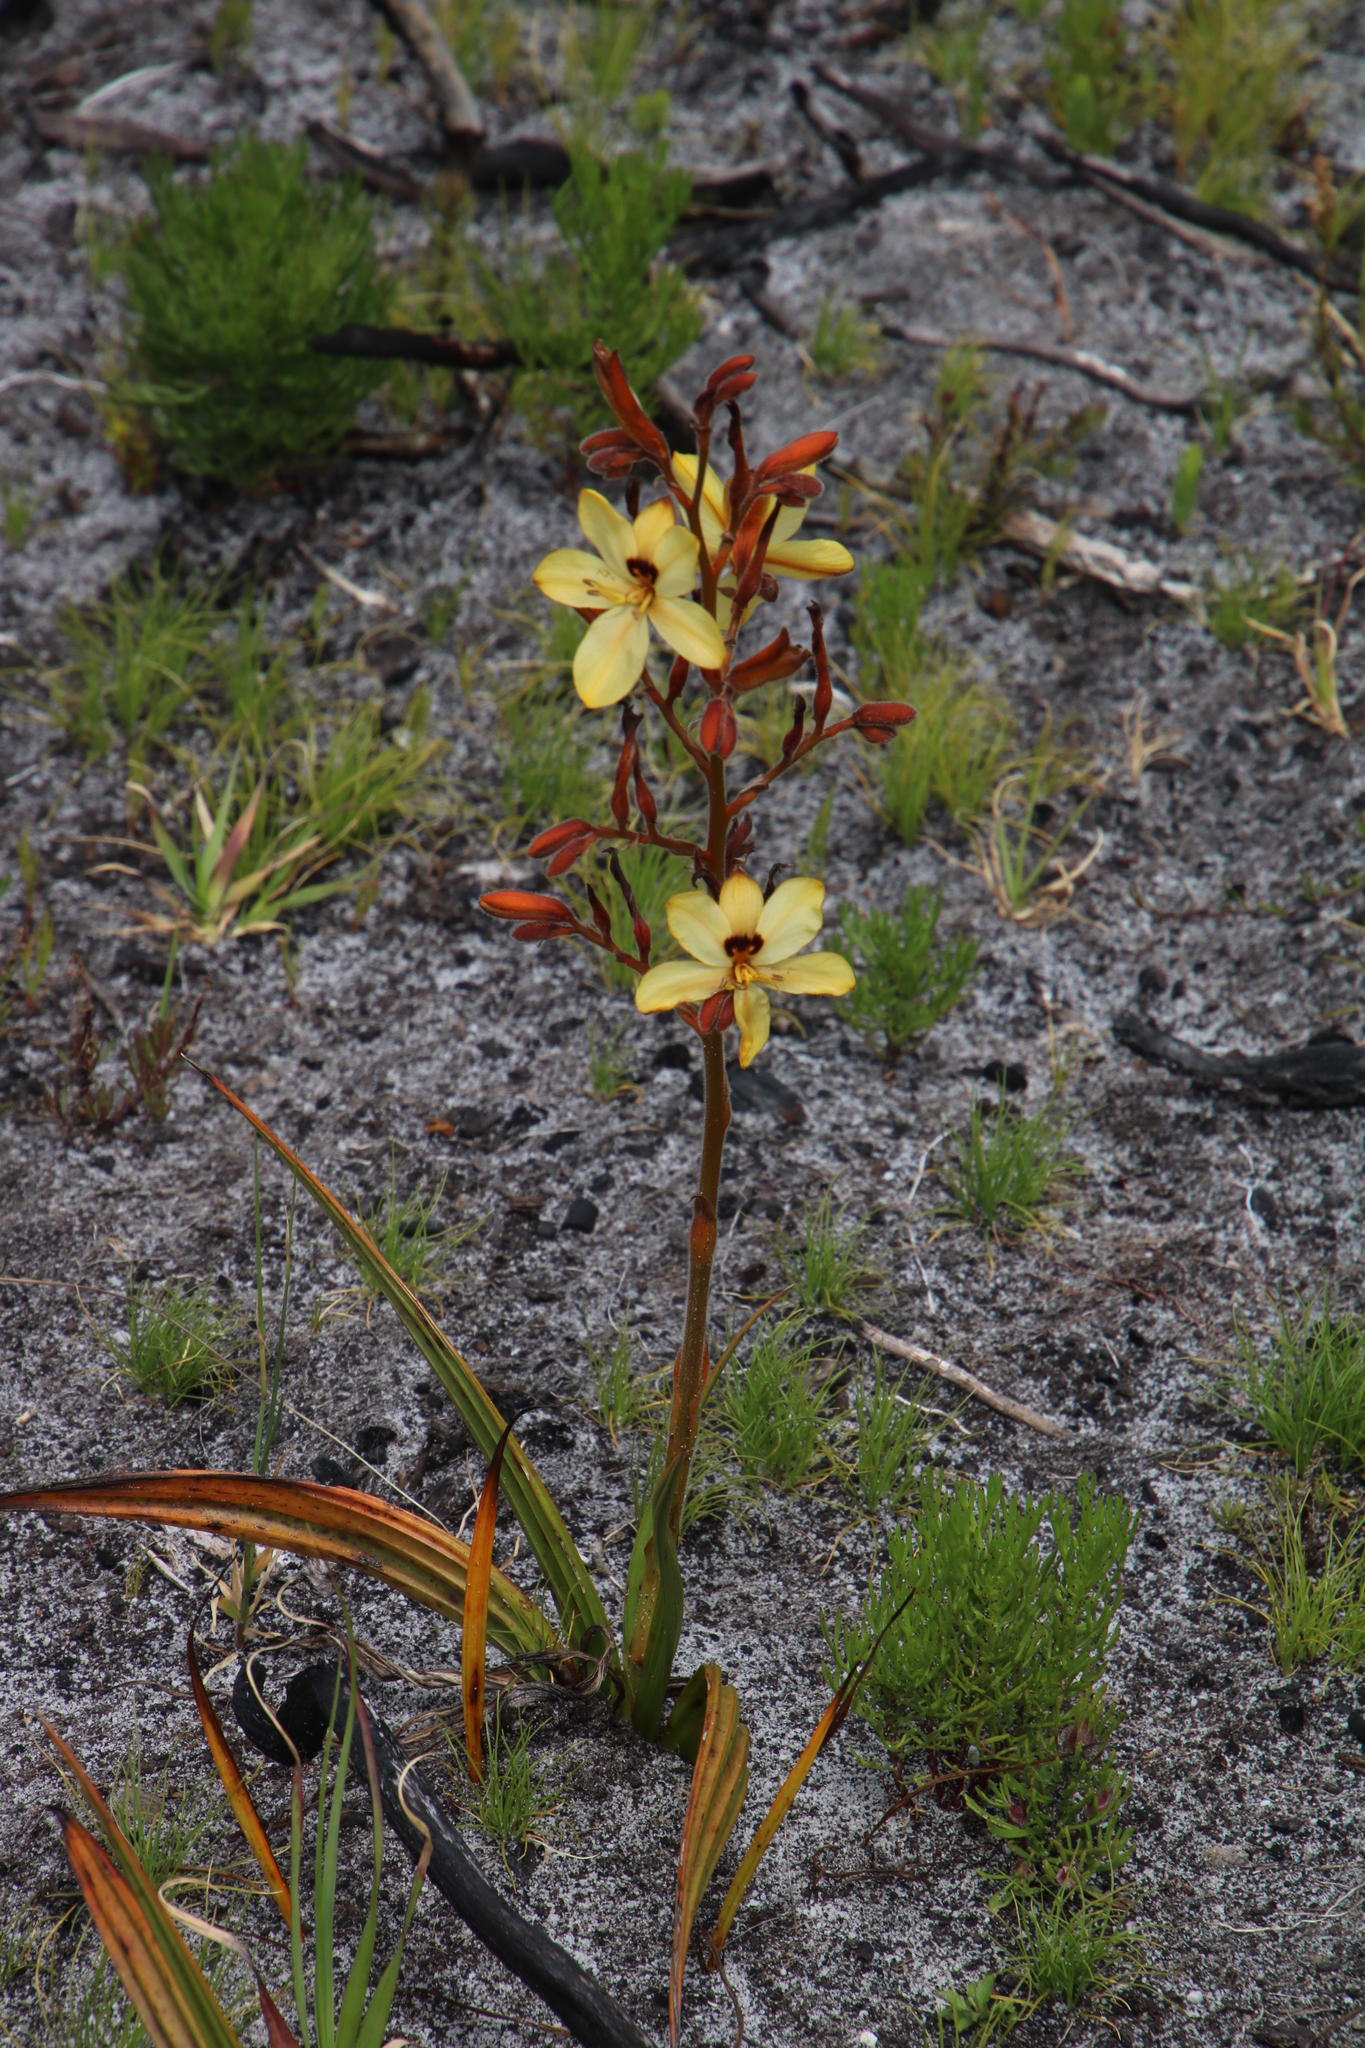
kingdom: Plantae
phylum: Tracheophyta
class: Liliopsida
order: Commelinales
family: Haemodoraceae
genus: Wachendorfia
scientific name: Wachendorfia paniculata
